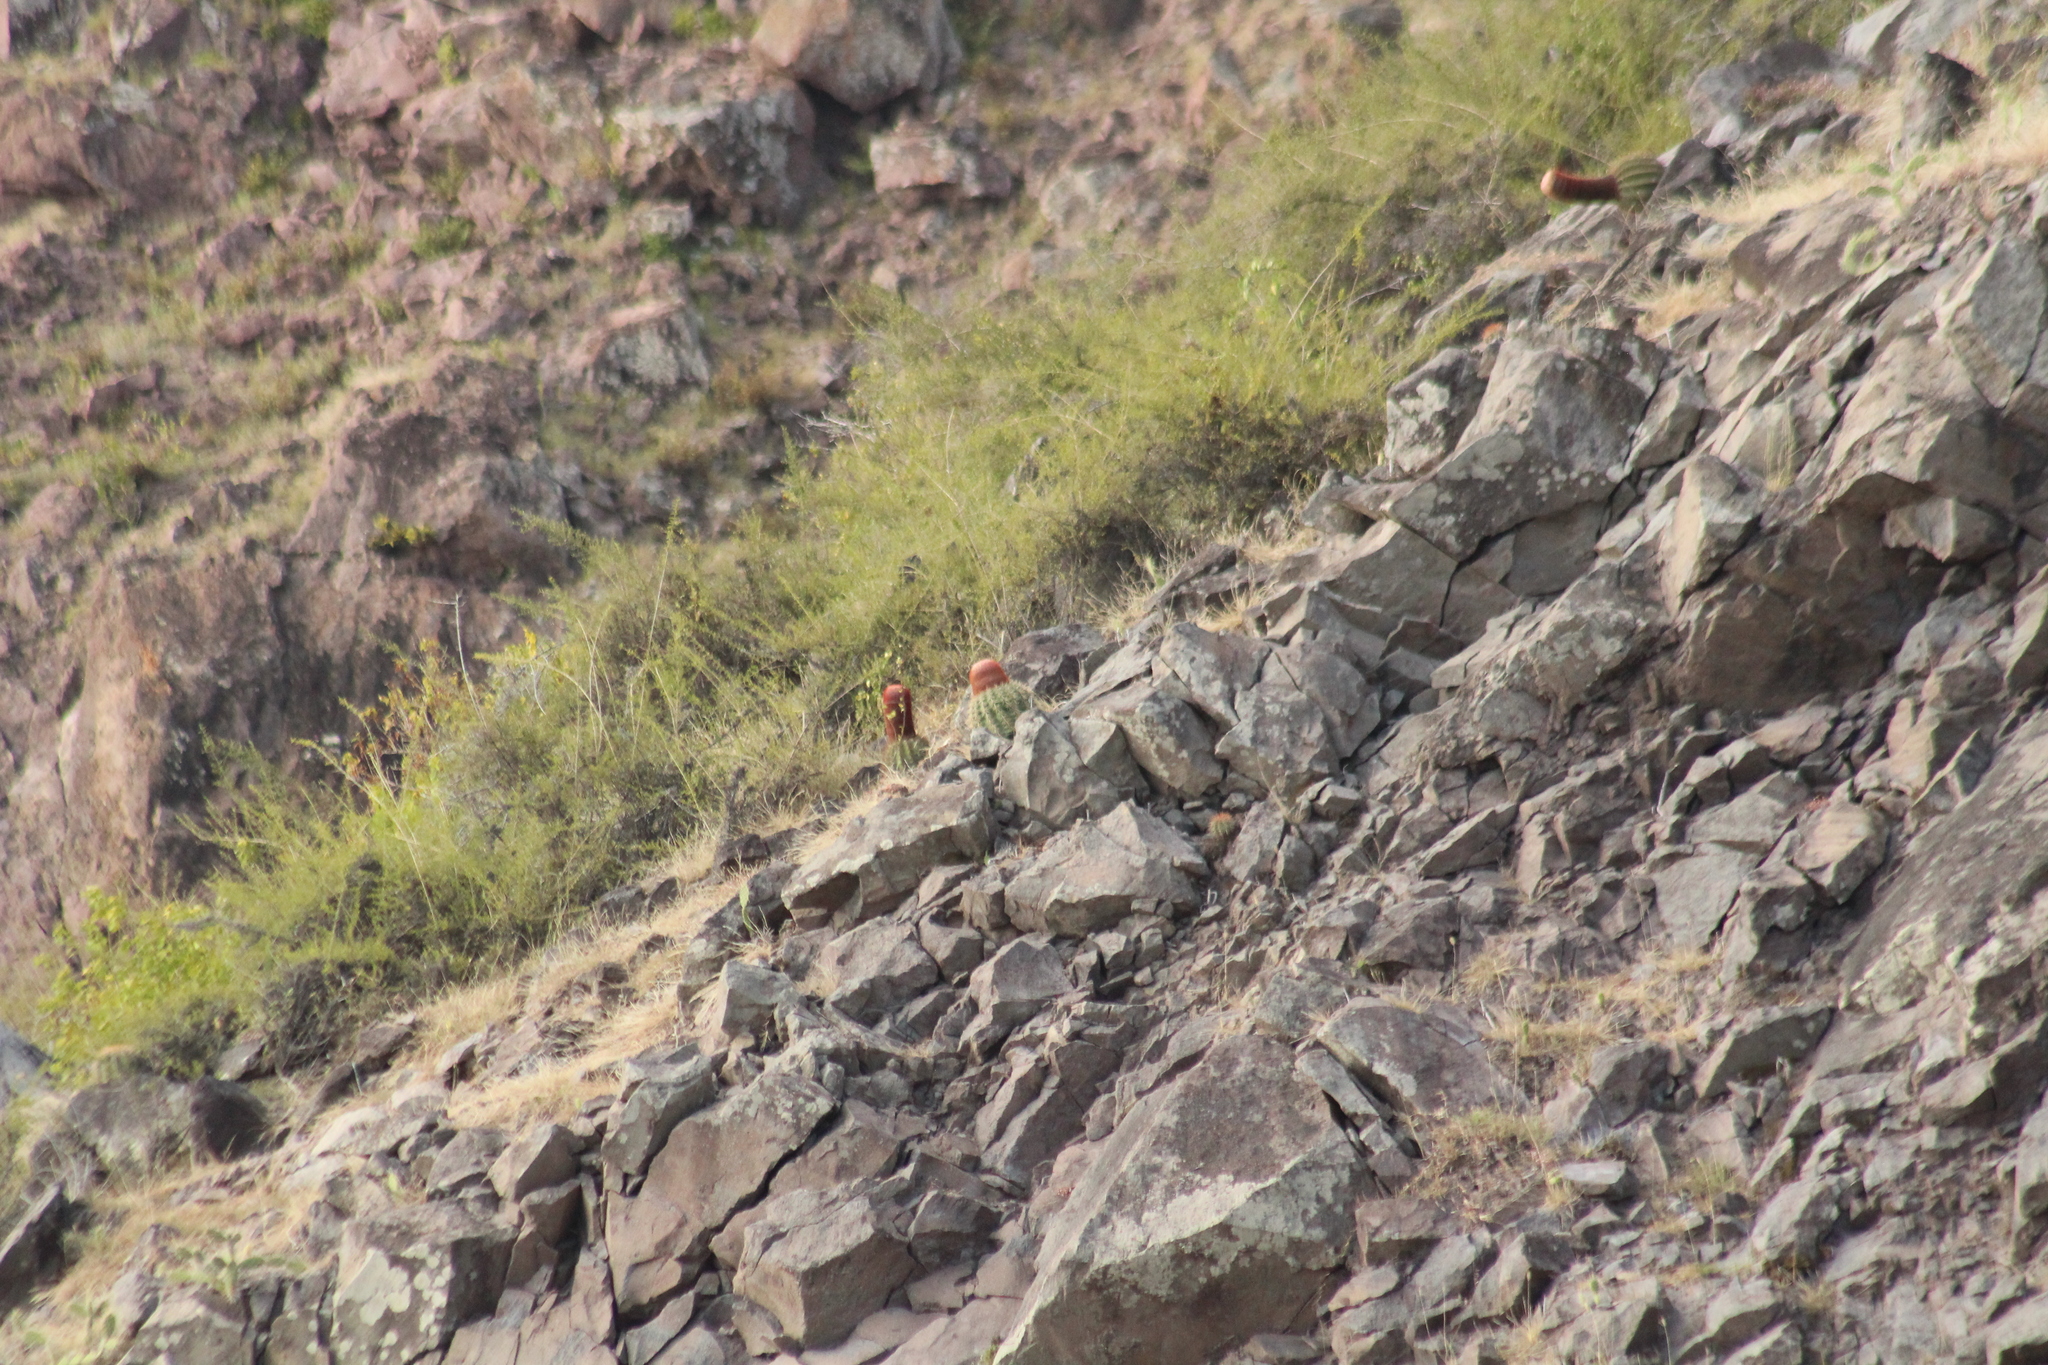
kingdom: Plantae
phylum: Tracheophyta
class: Magnoliopsida
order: Caryophyllales
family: Cactaceae
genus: Melocactus
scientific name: Melocactus intortus
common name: Barrel cactus
